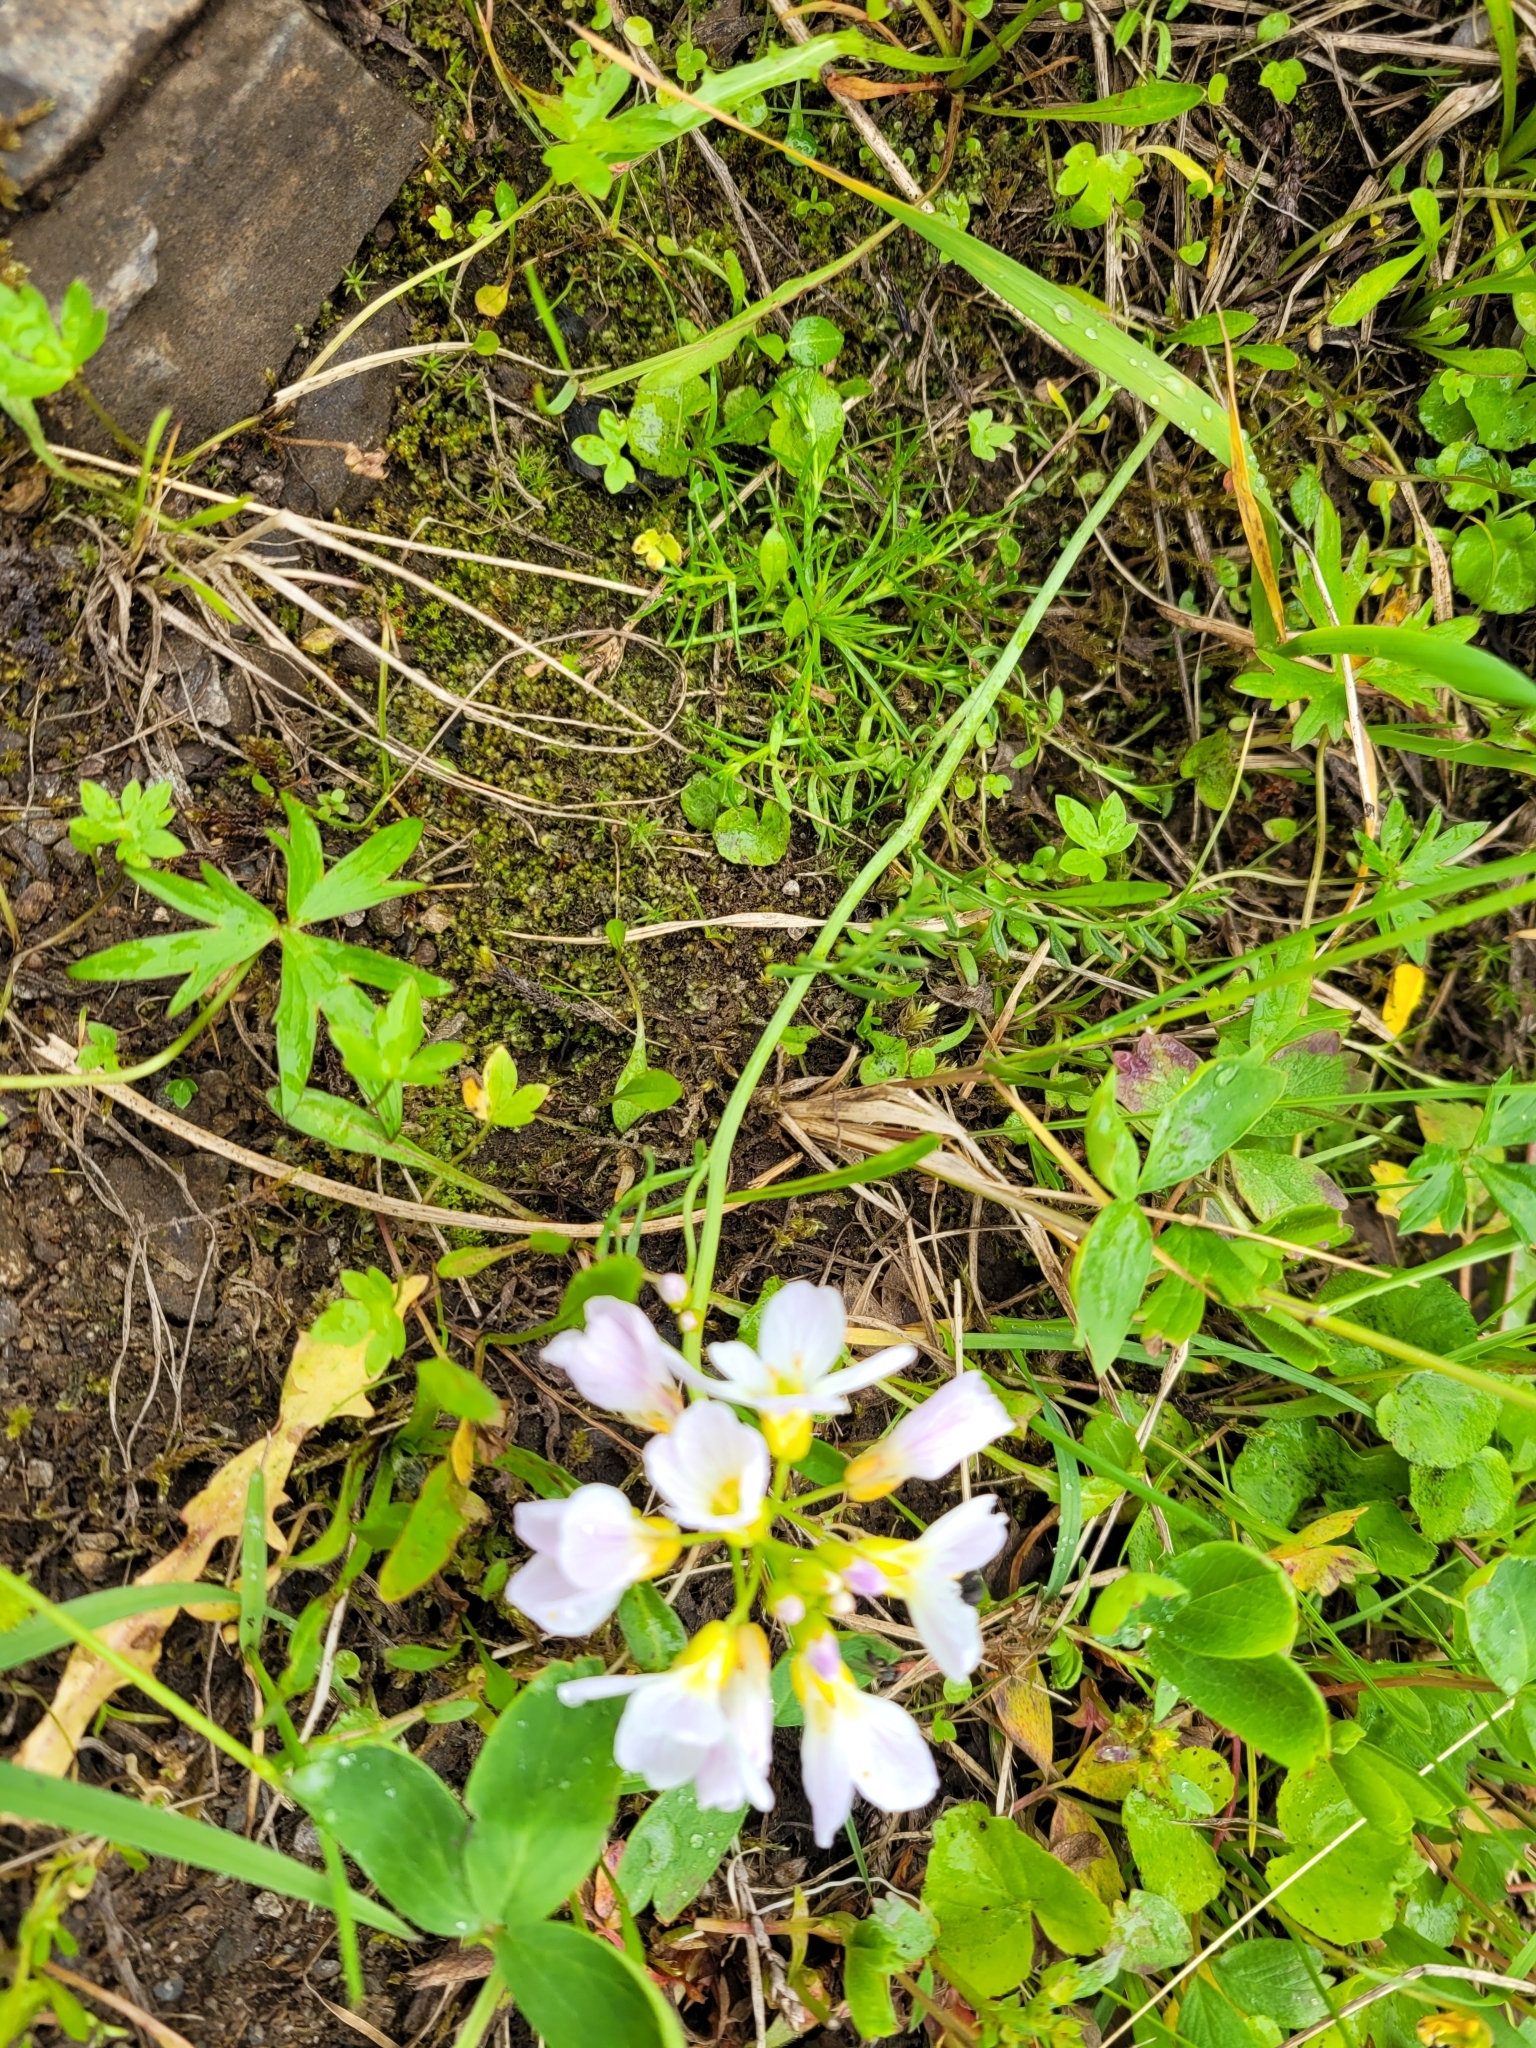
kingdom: Plantae
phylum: Tracheophyta
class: Magnoliopsida
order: Brassicales
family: Brassicaceae
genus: Cardamine
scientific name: Cardamine pratensis
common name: Cuckoo flower
